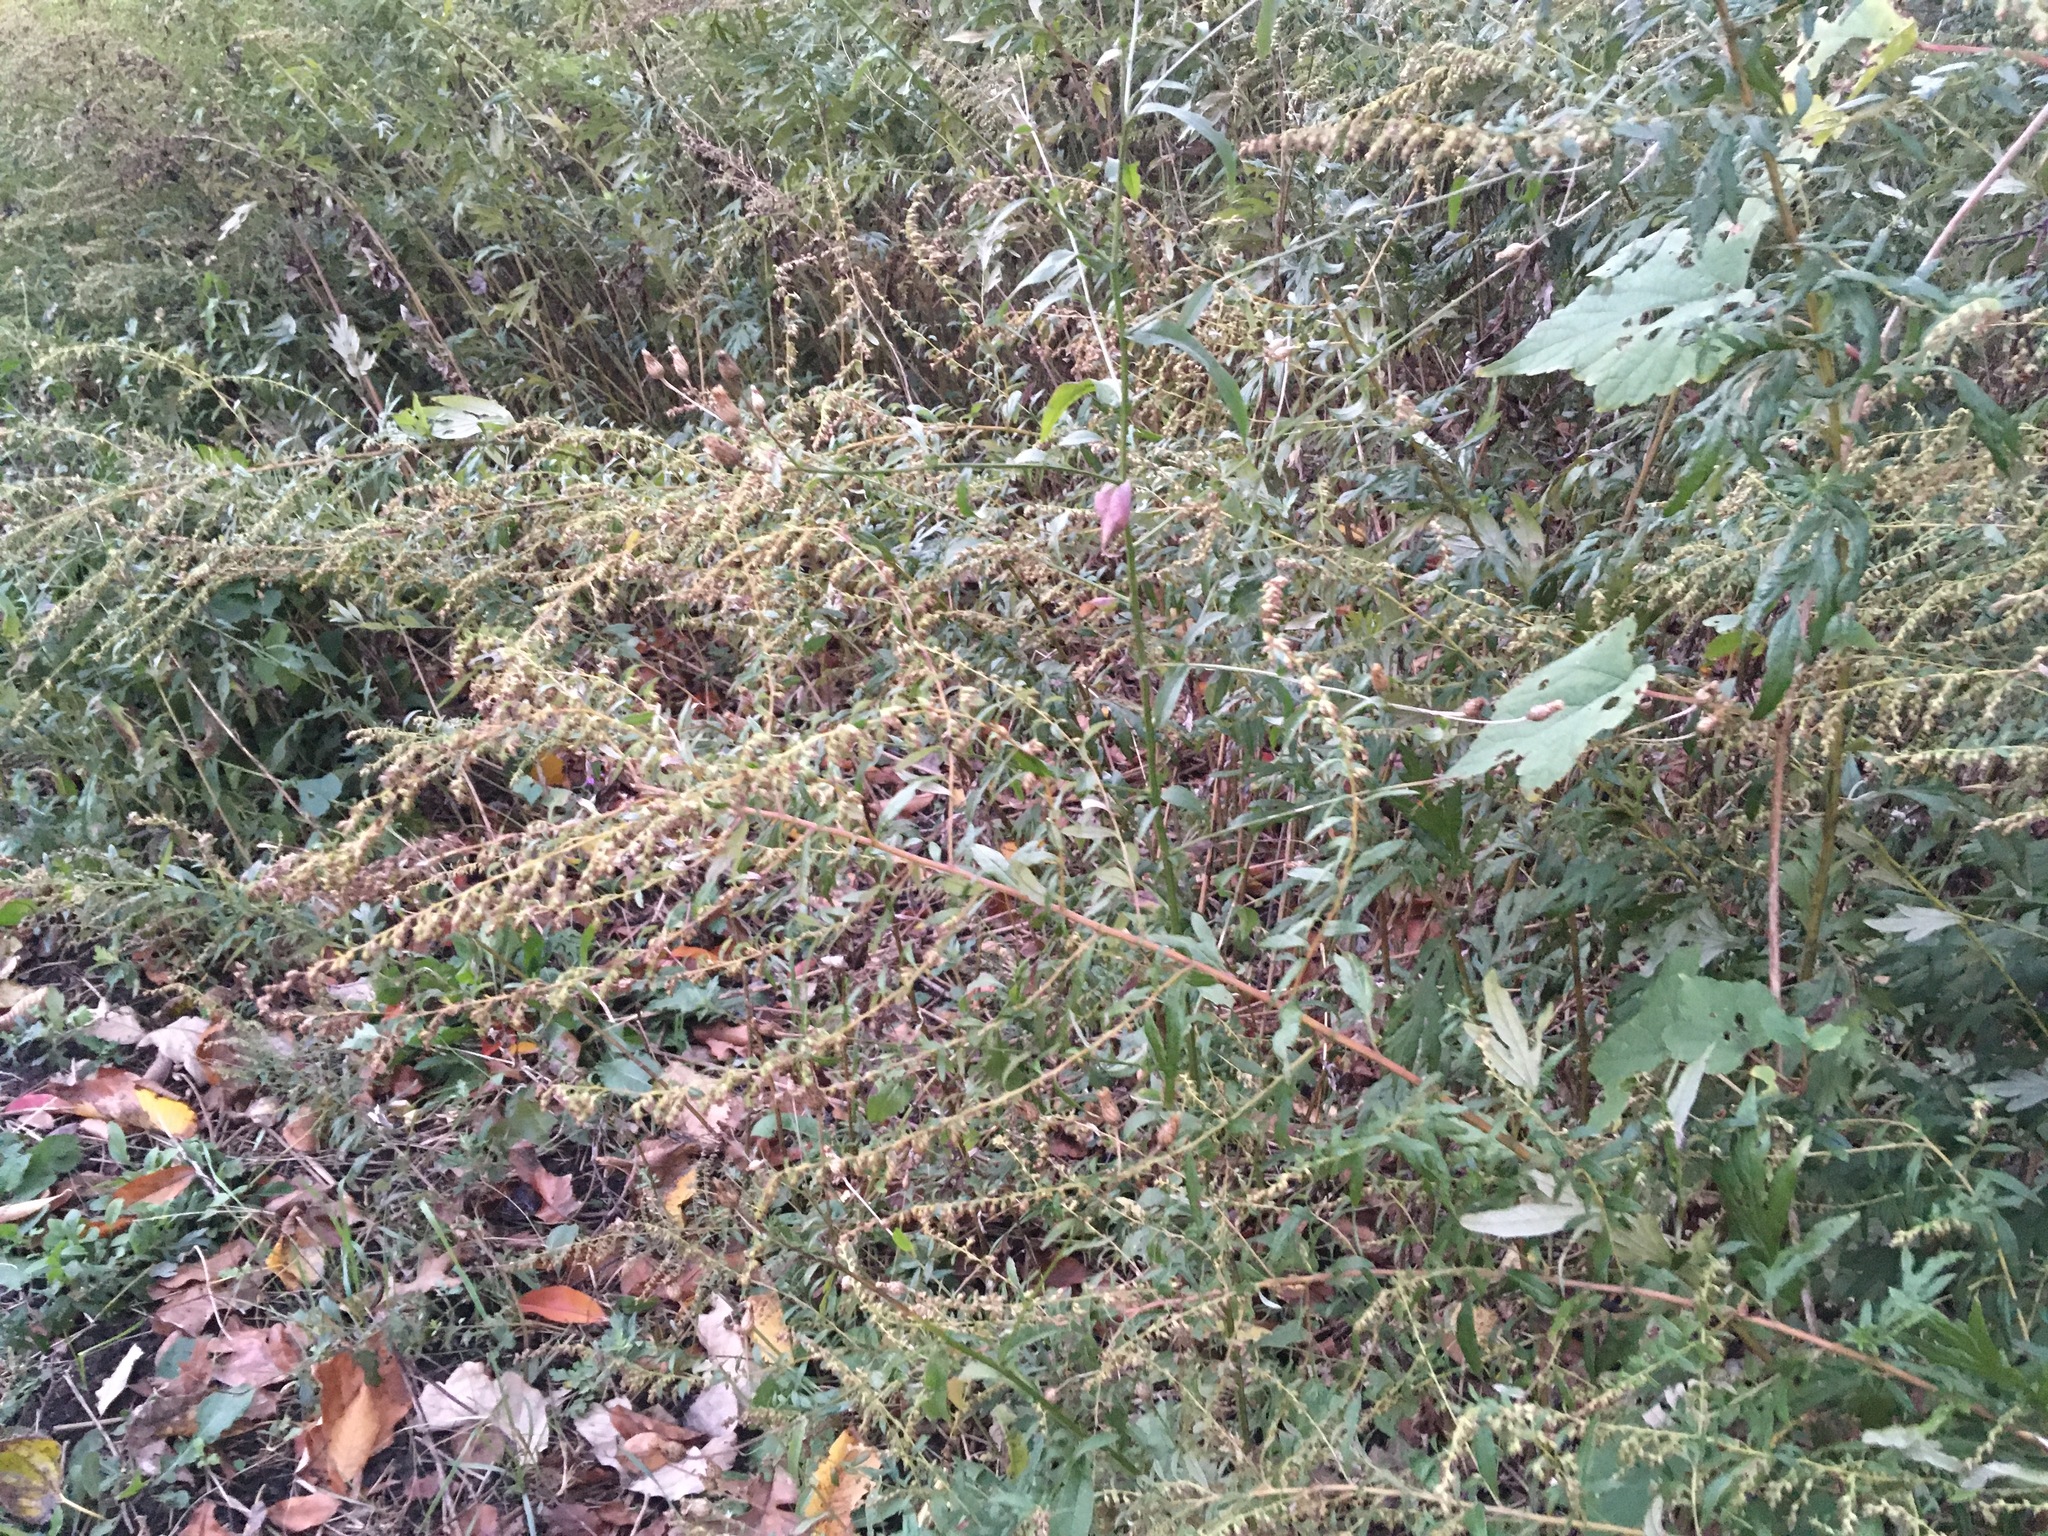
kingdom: Plantae
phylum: Tracheophyta
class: Magnoliopsida
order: Asterales
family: Asteraceae
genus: Artemisia
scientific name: Artemisia vulgaris
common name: Mugwort
